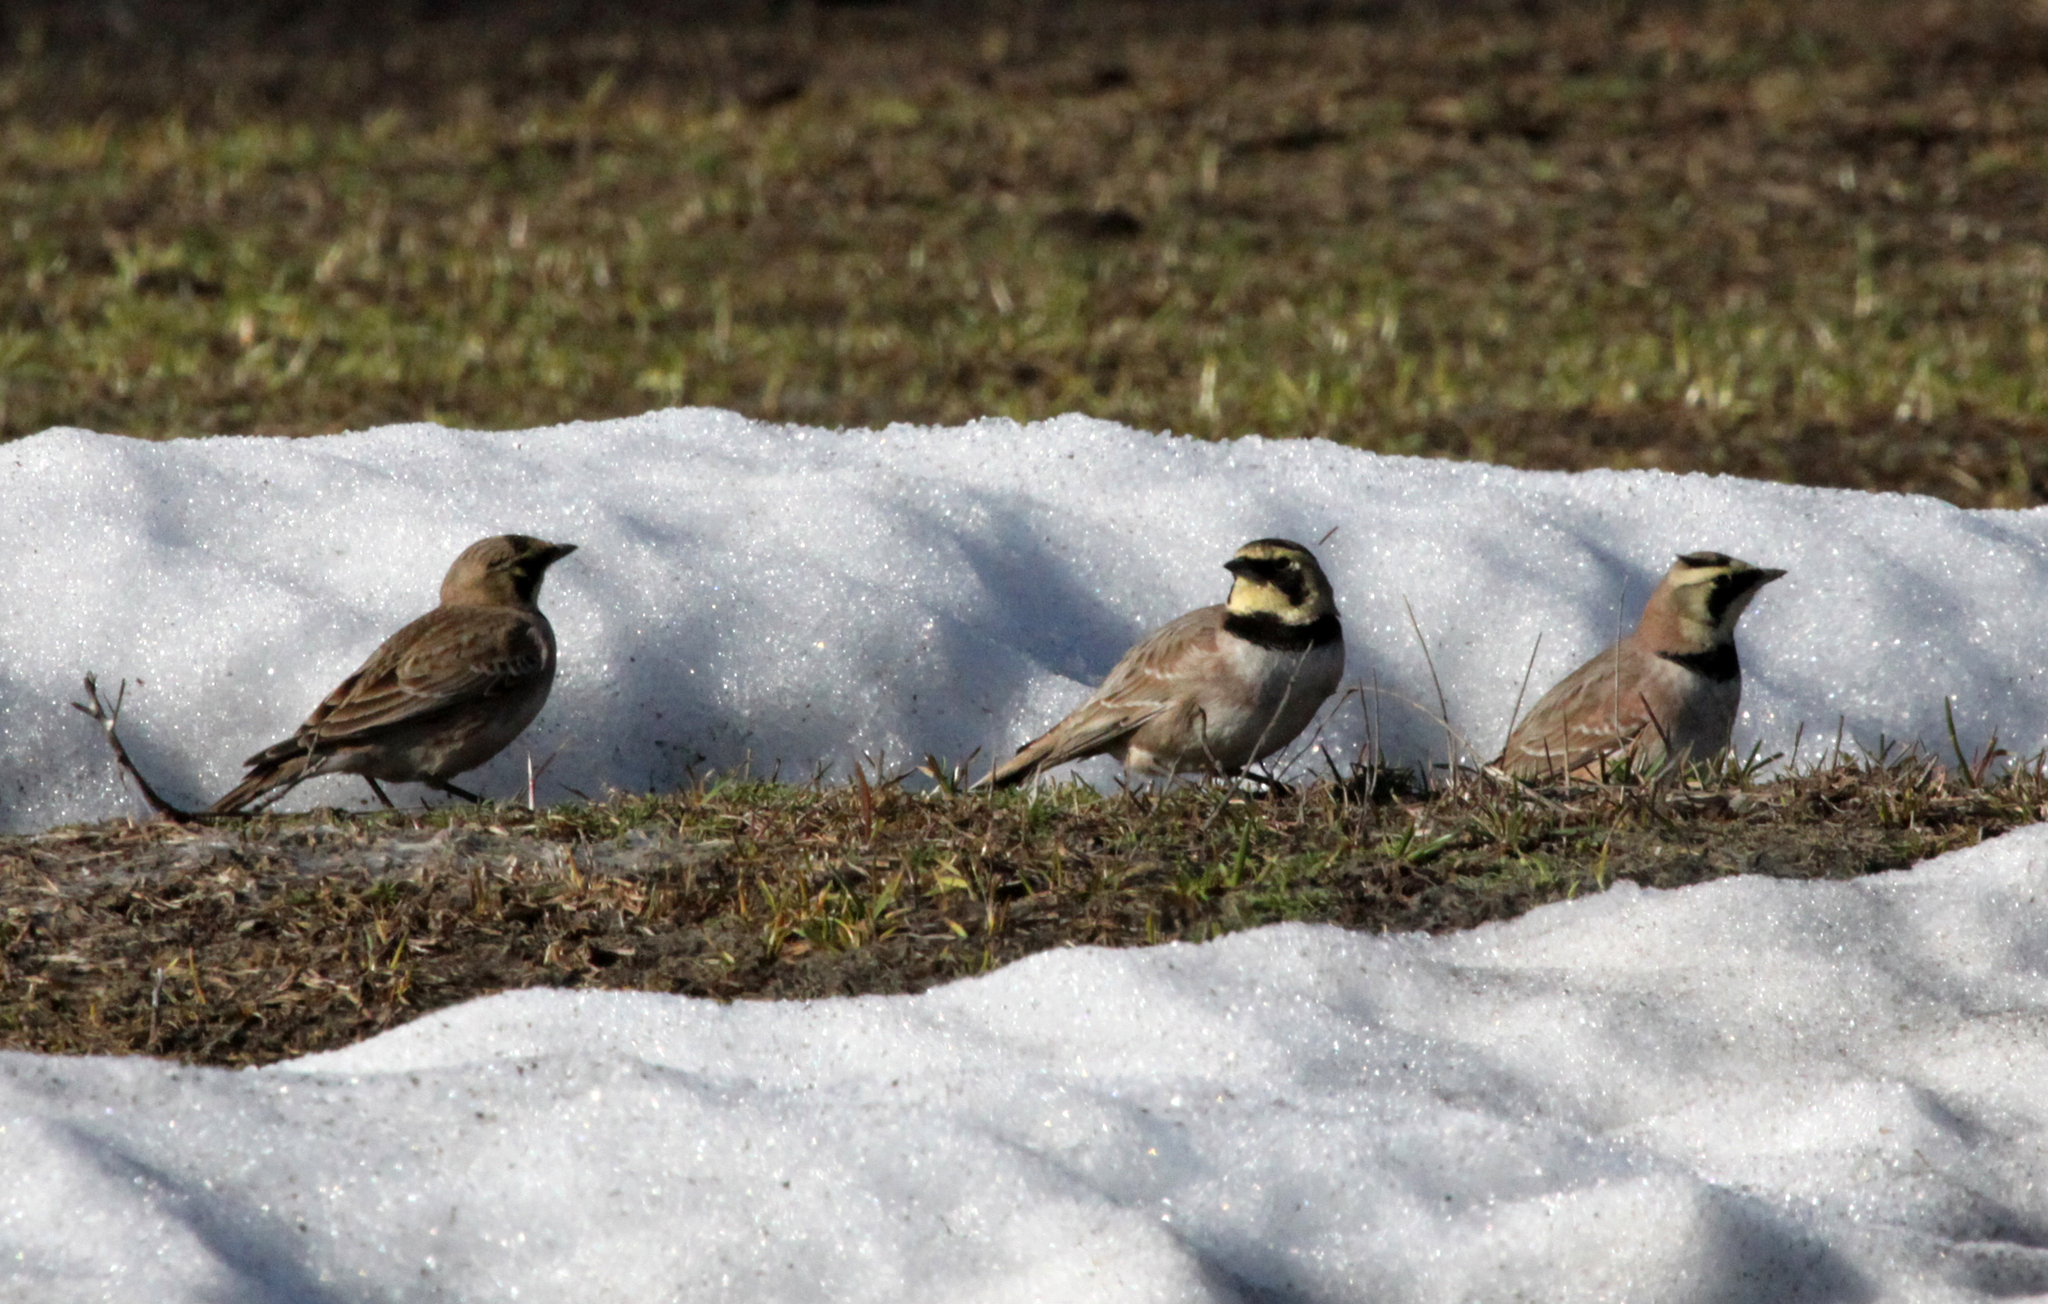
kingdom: Animalia
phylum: Chordata
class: Aves
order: Passeriformes
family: Alaudidae
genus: Eremophila
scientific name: Eremophila alpestris
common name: Horned lark
